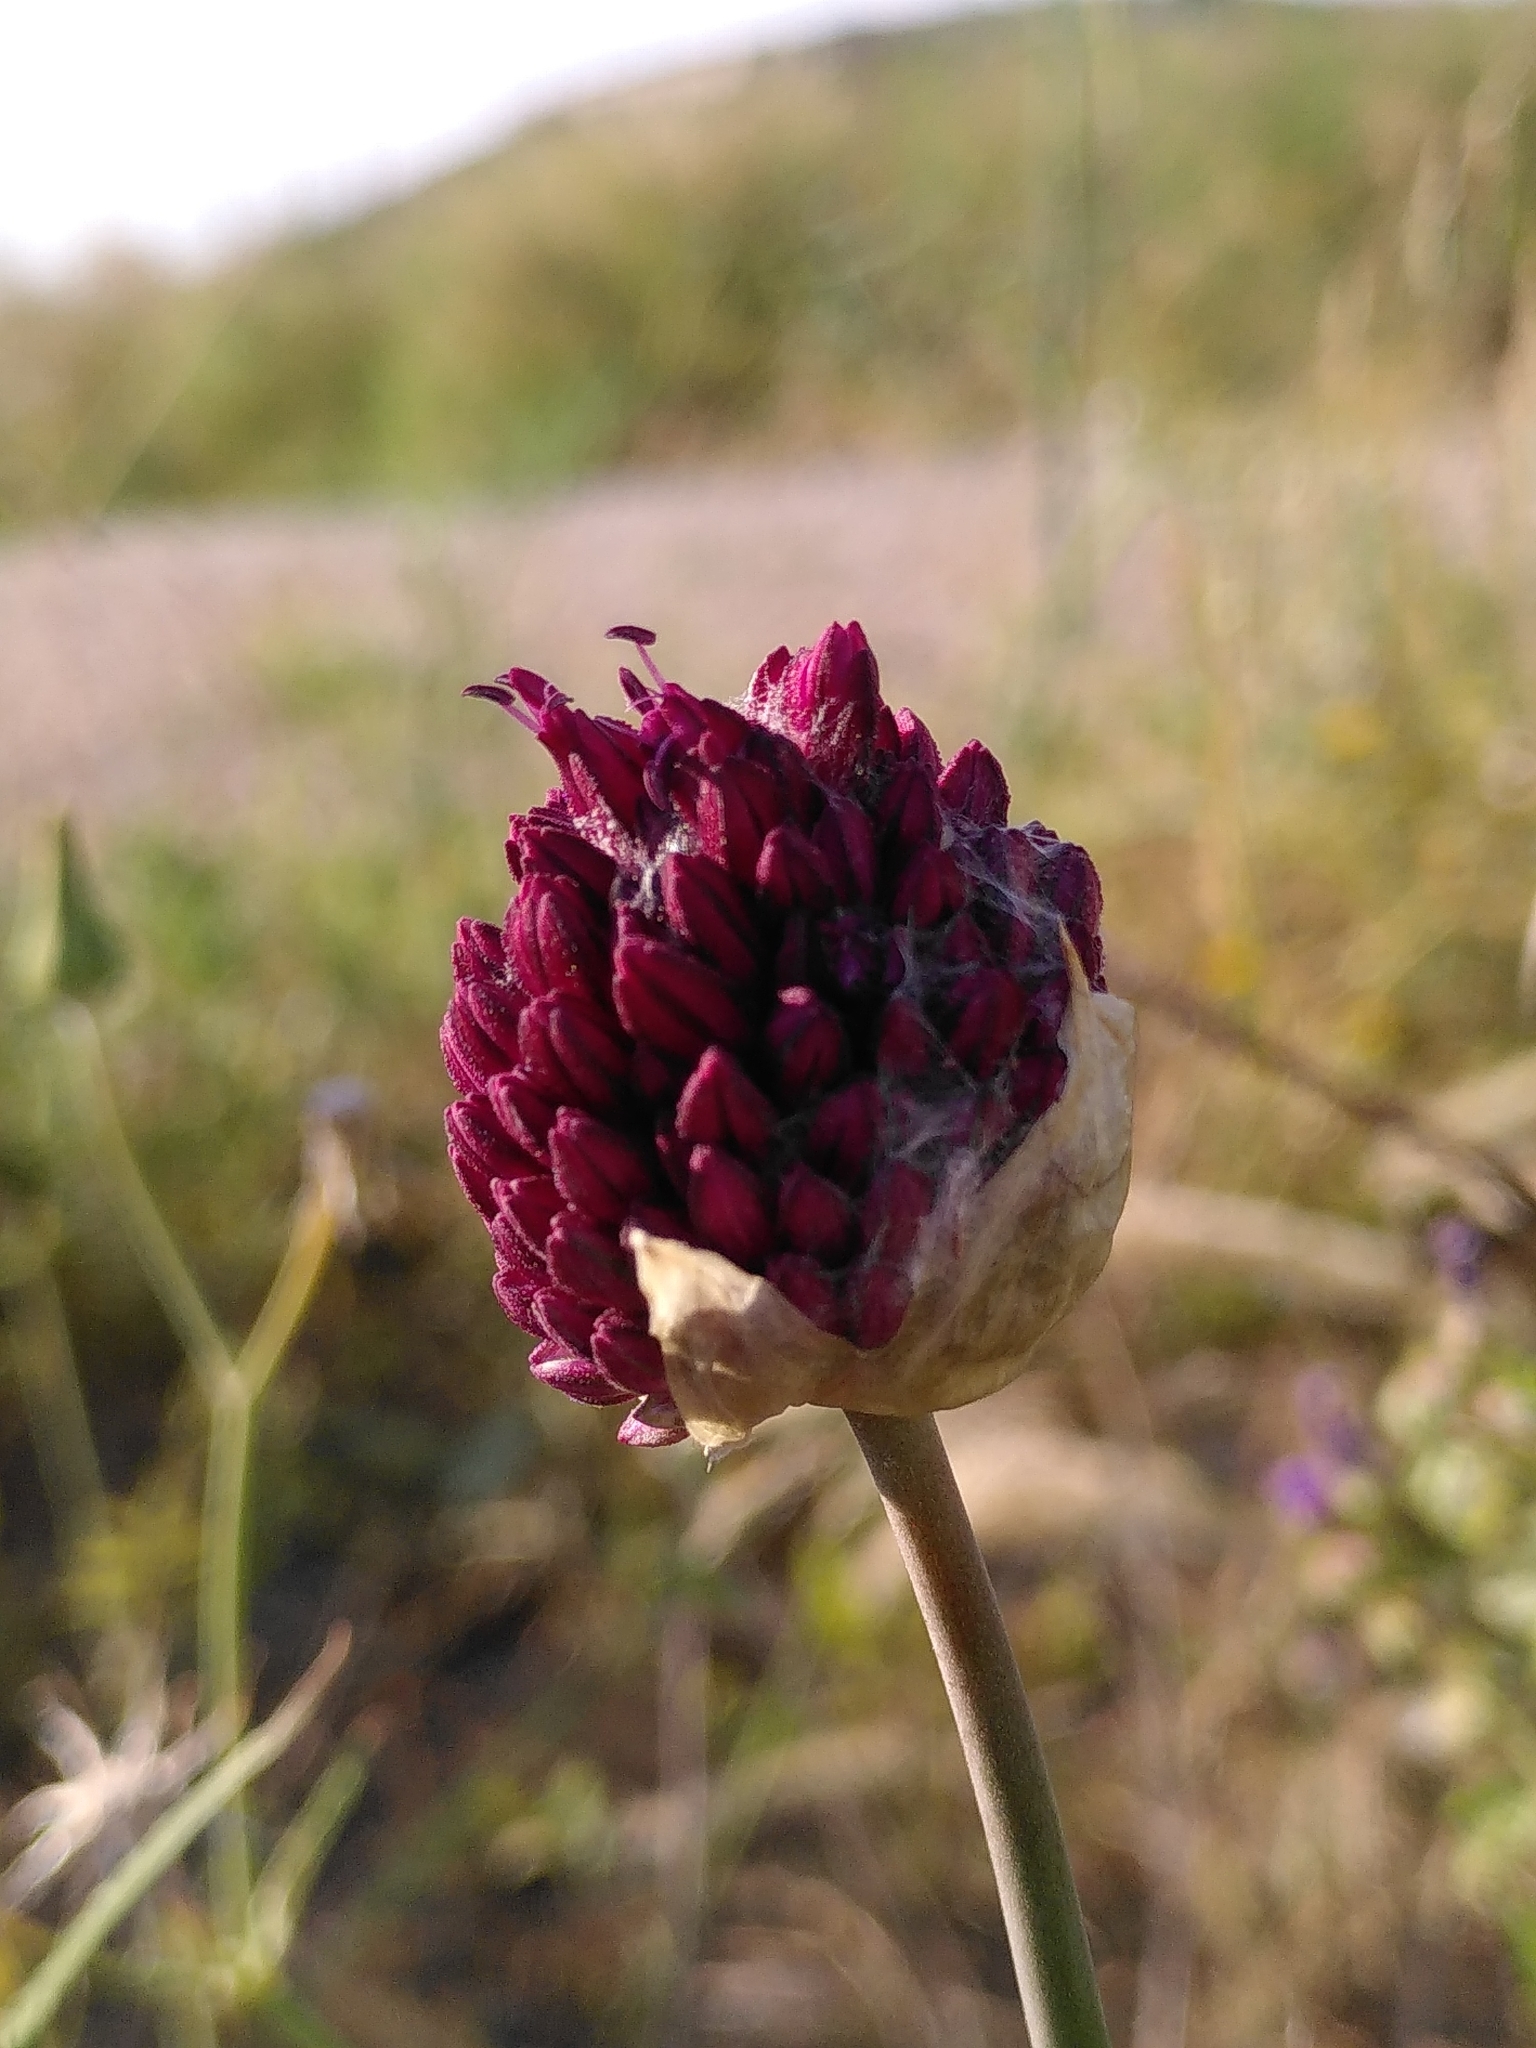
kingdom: Plantae
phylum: Tracheophyta
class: Liliopsida
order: Asparagales
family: Amaryllidaceae
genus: Allium
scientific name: Allium sphaerocephalon
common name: Round-headed leek
